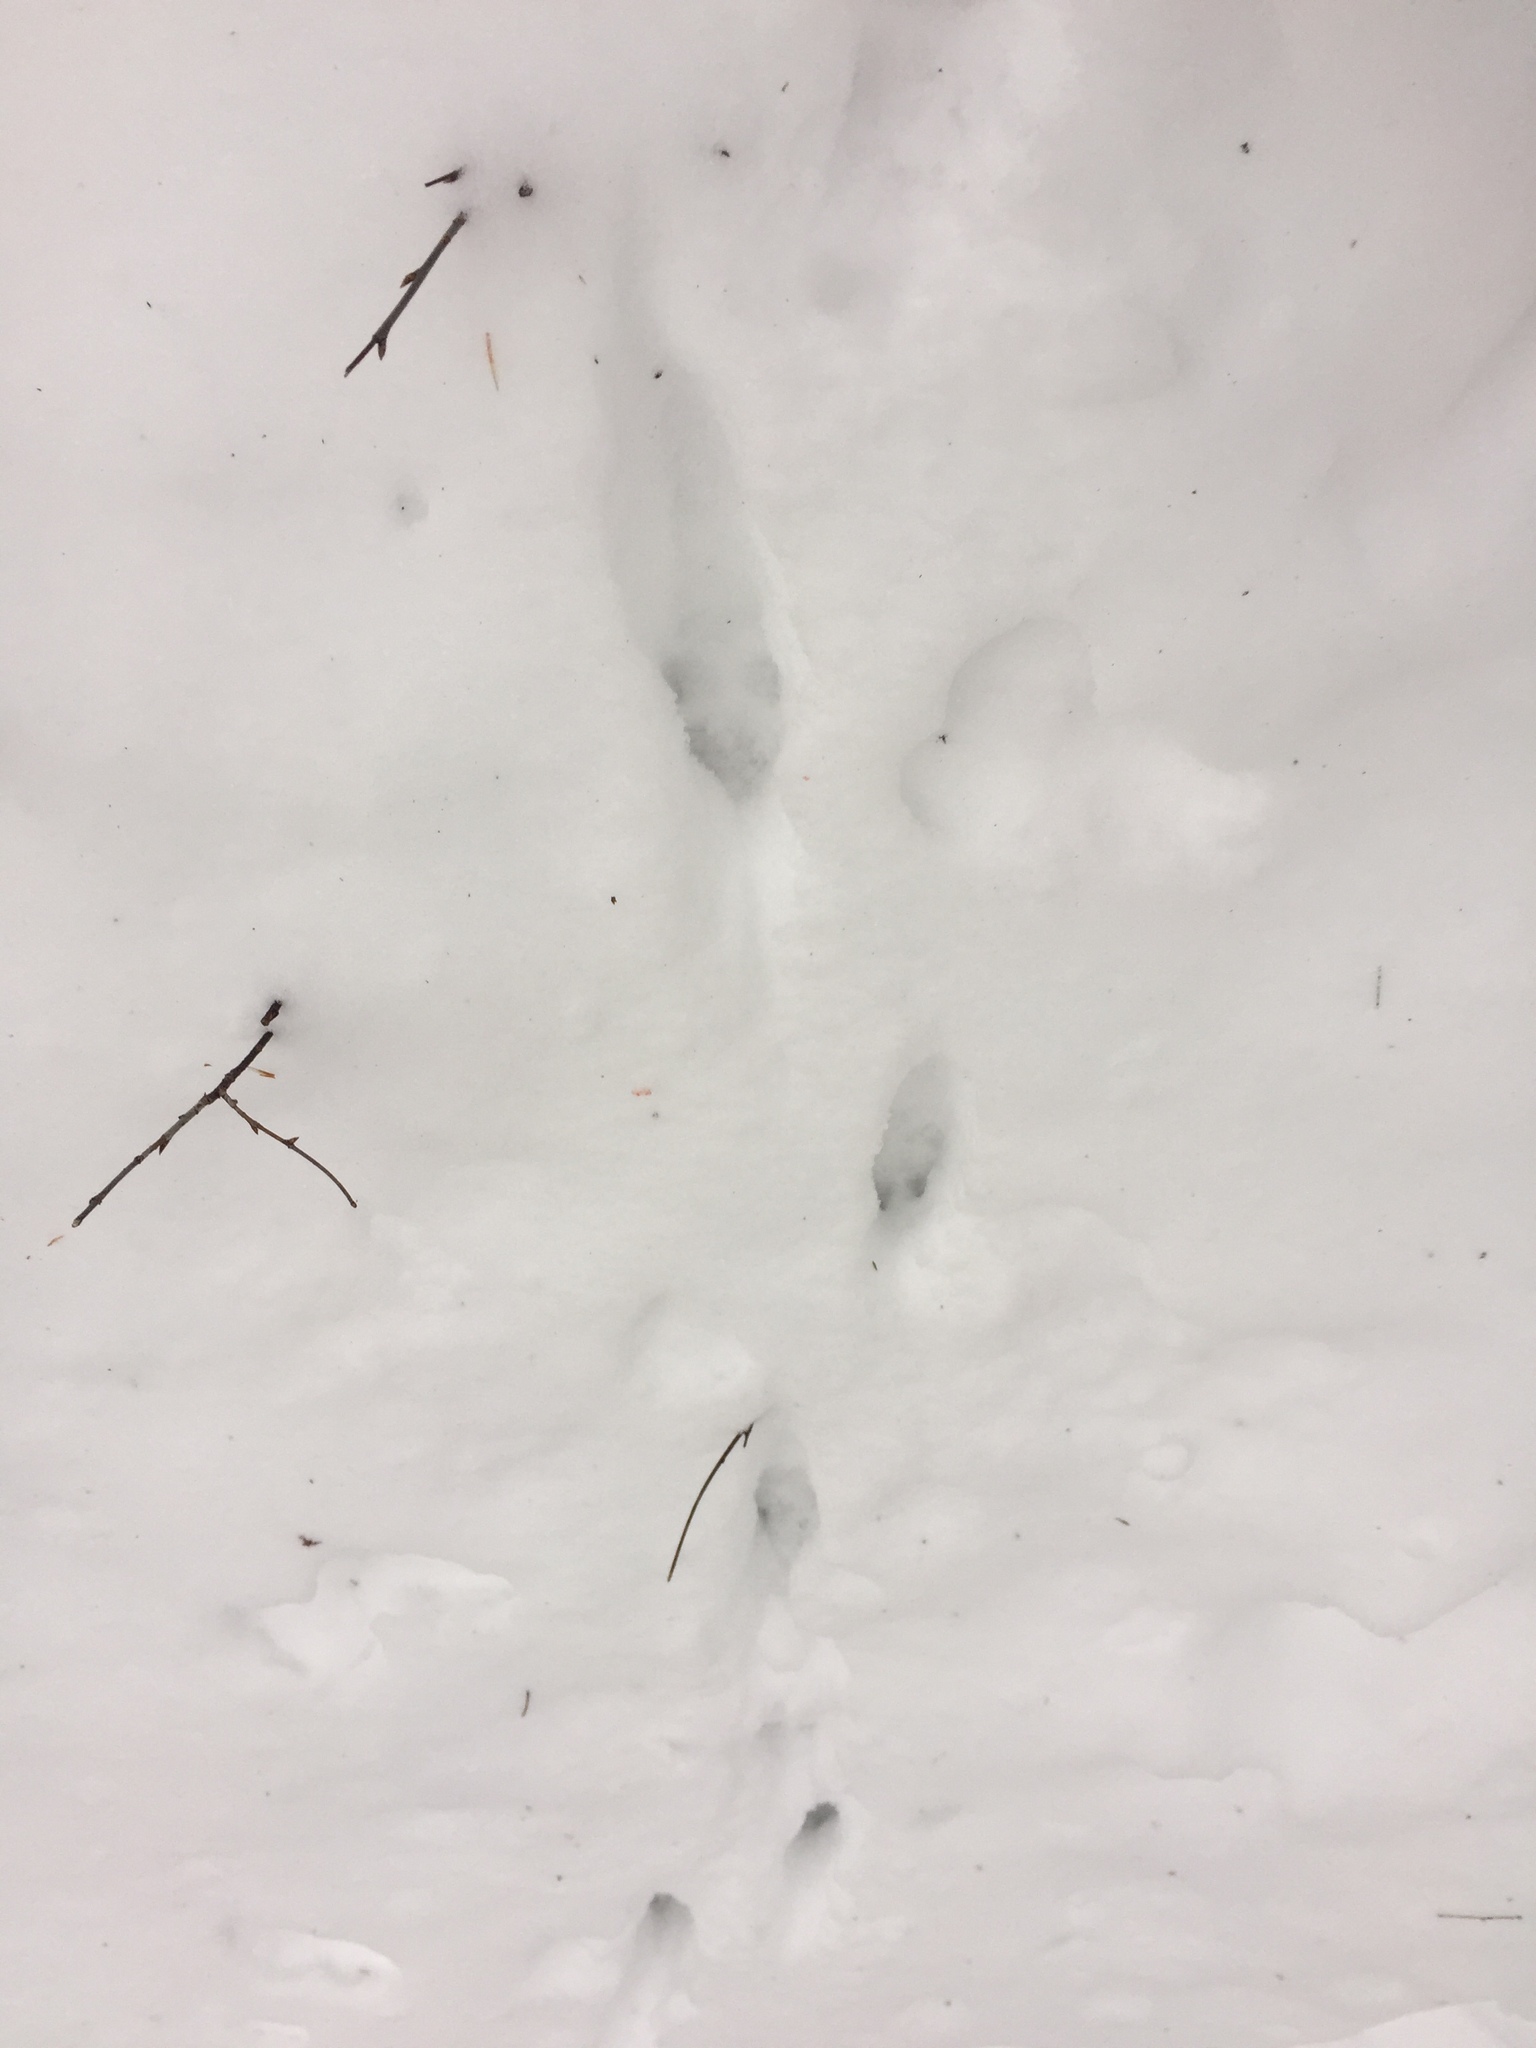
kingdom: Animalia
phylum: Chordata
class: Mammalia
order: Carnivora
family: Canidae
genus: Vulpes
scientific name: Vulpes vulpes
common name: Red fox
